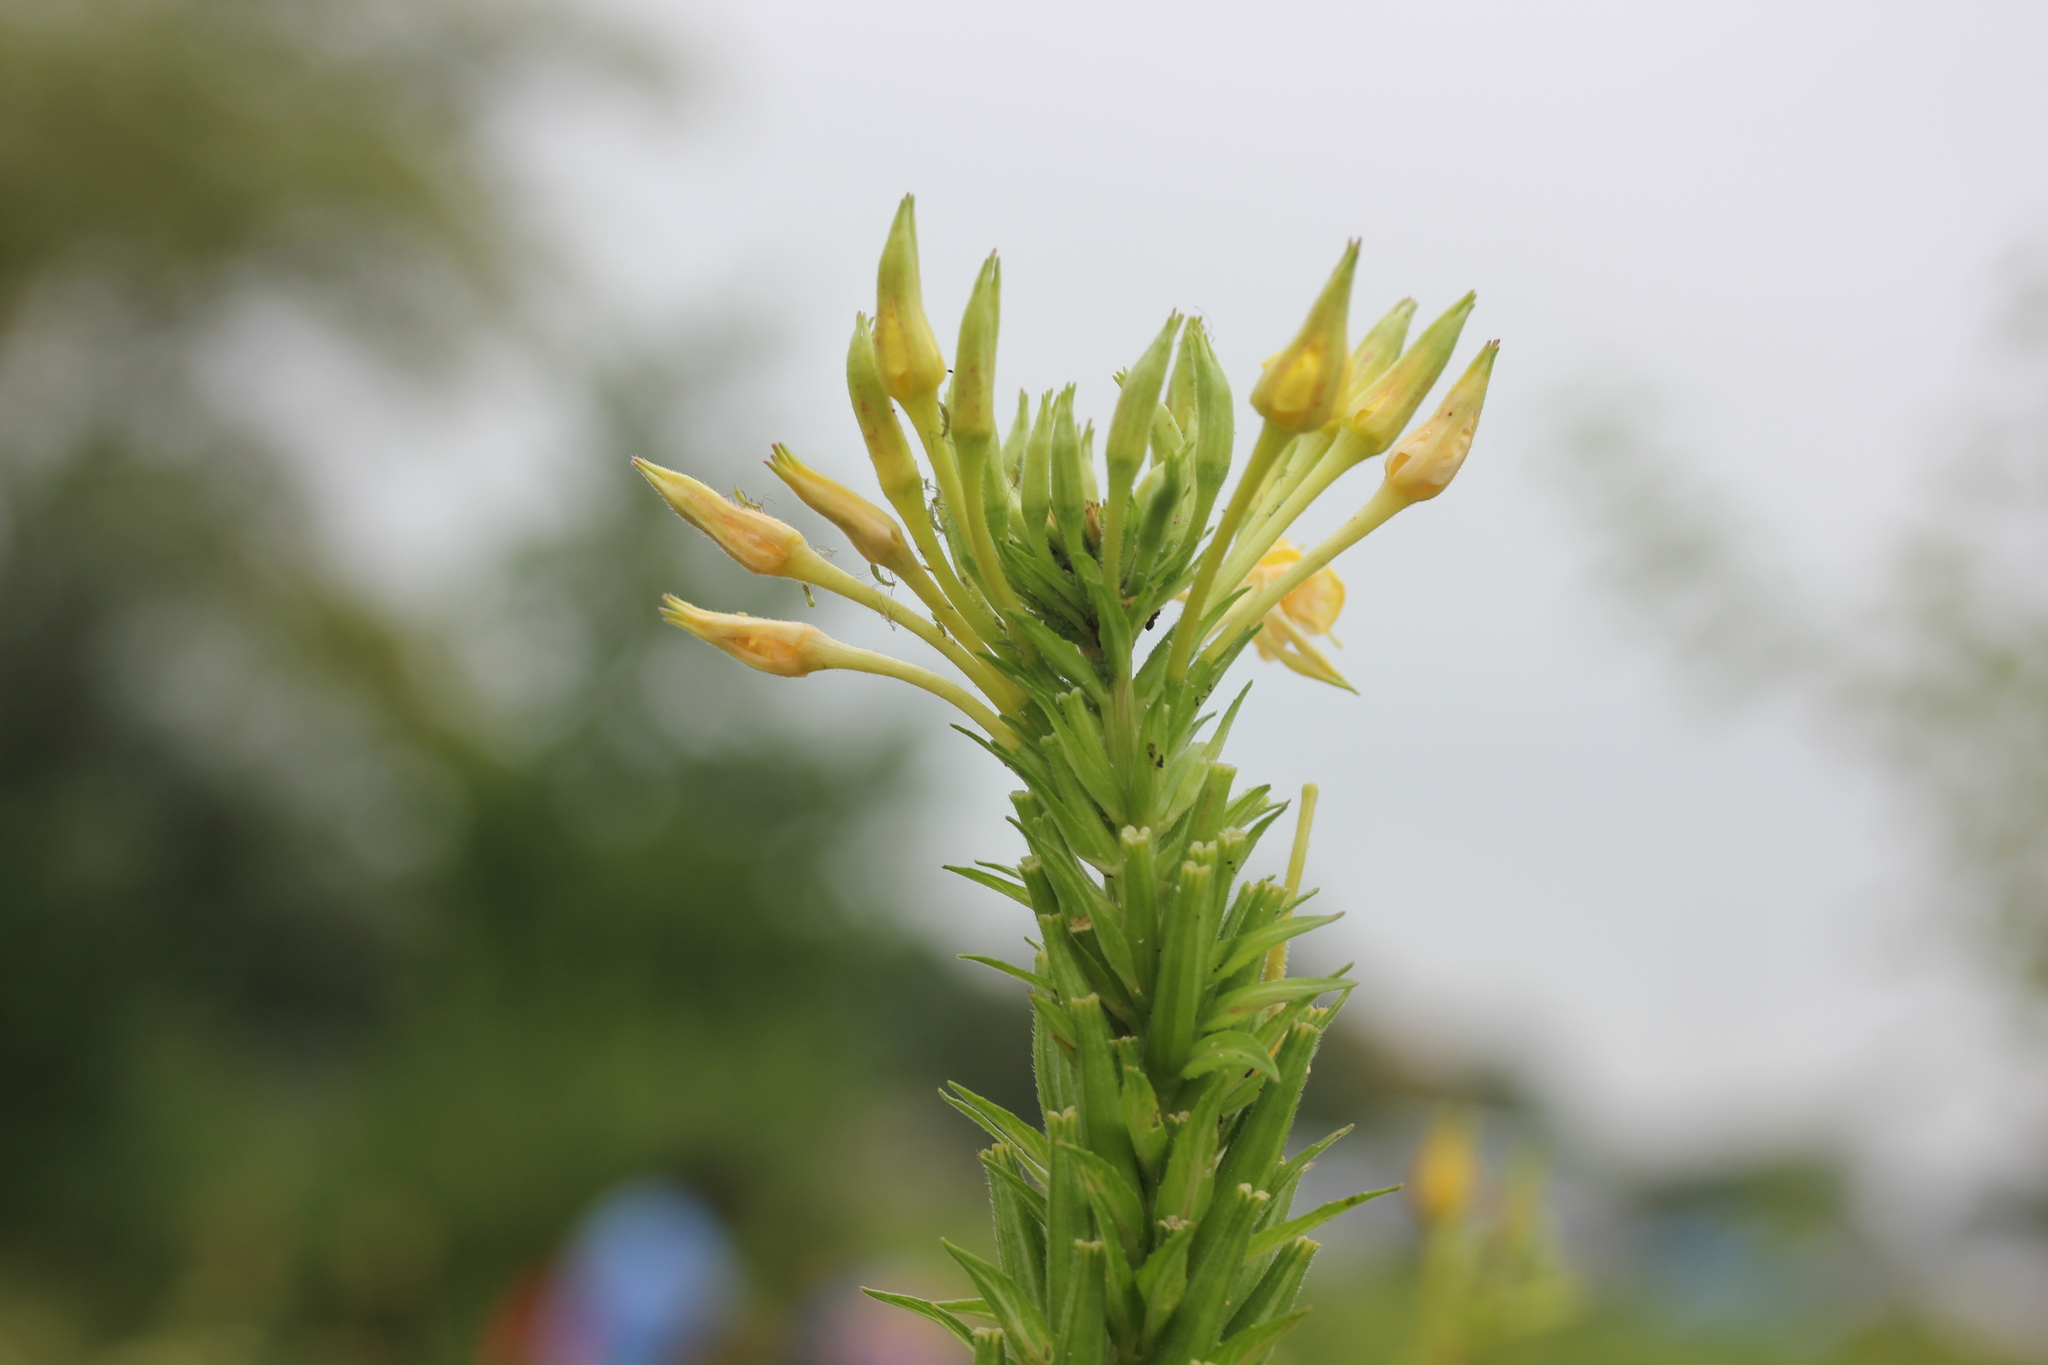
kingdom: Plantae
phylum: Tracheophyta
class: Magnoliopsida
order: Myrtales
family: Onagraceae
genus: Oenothera
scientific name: Oenothera biennis
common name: Common evening-primrose
